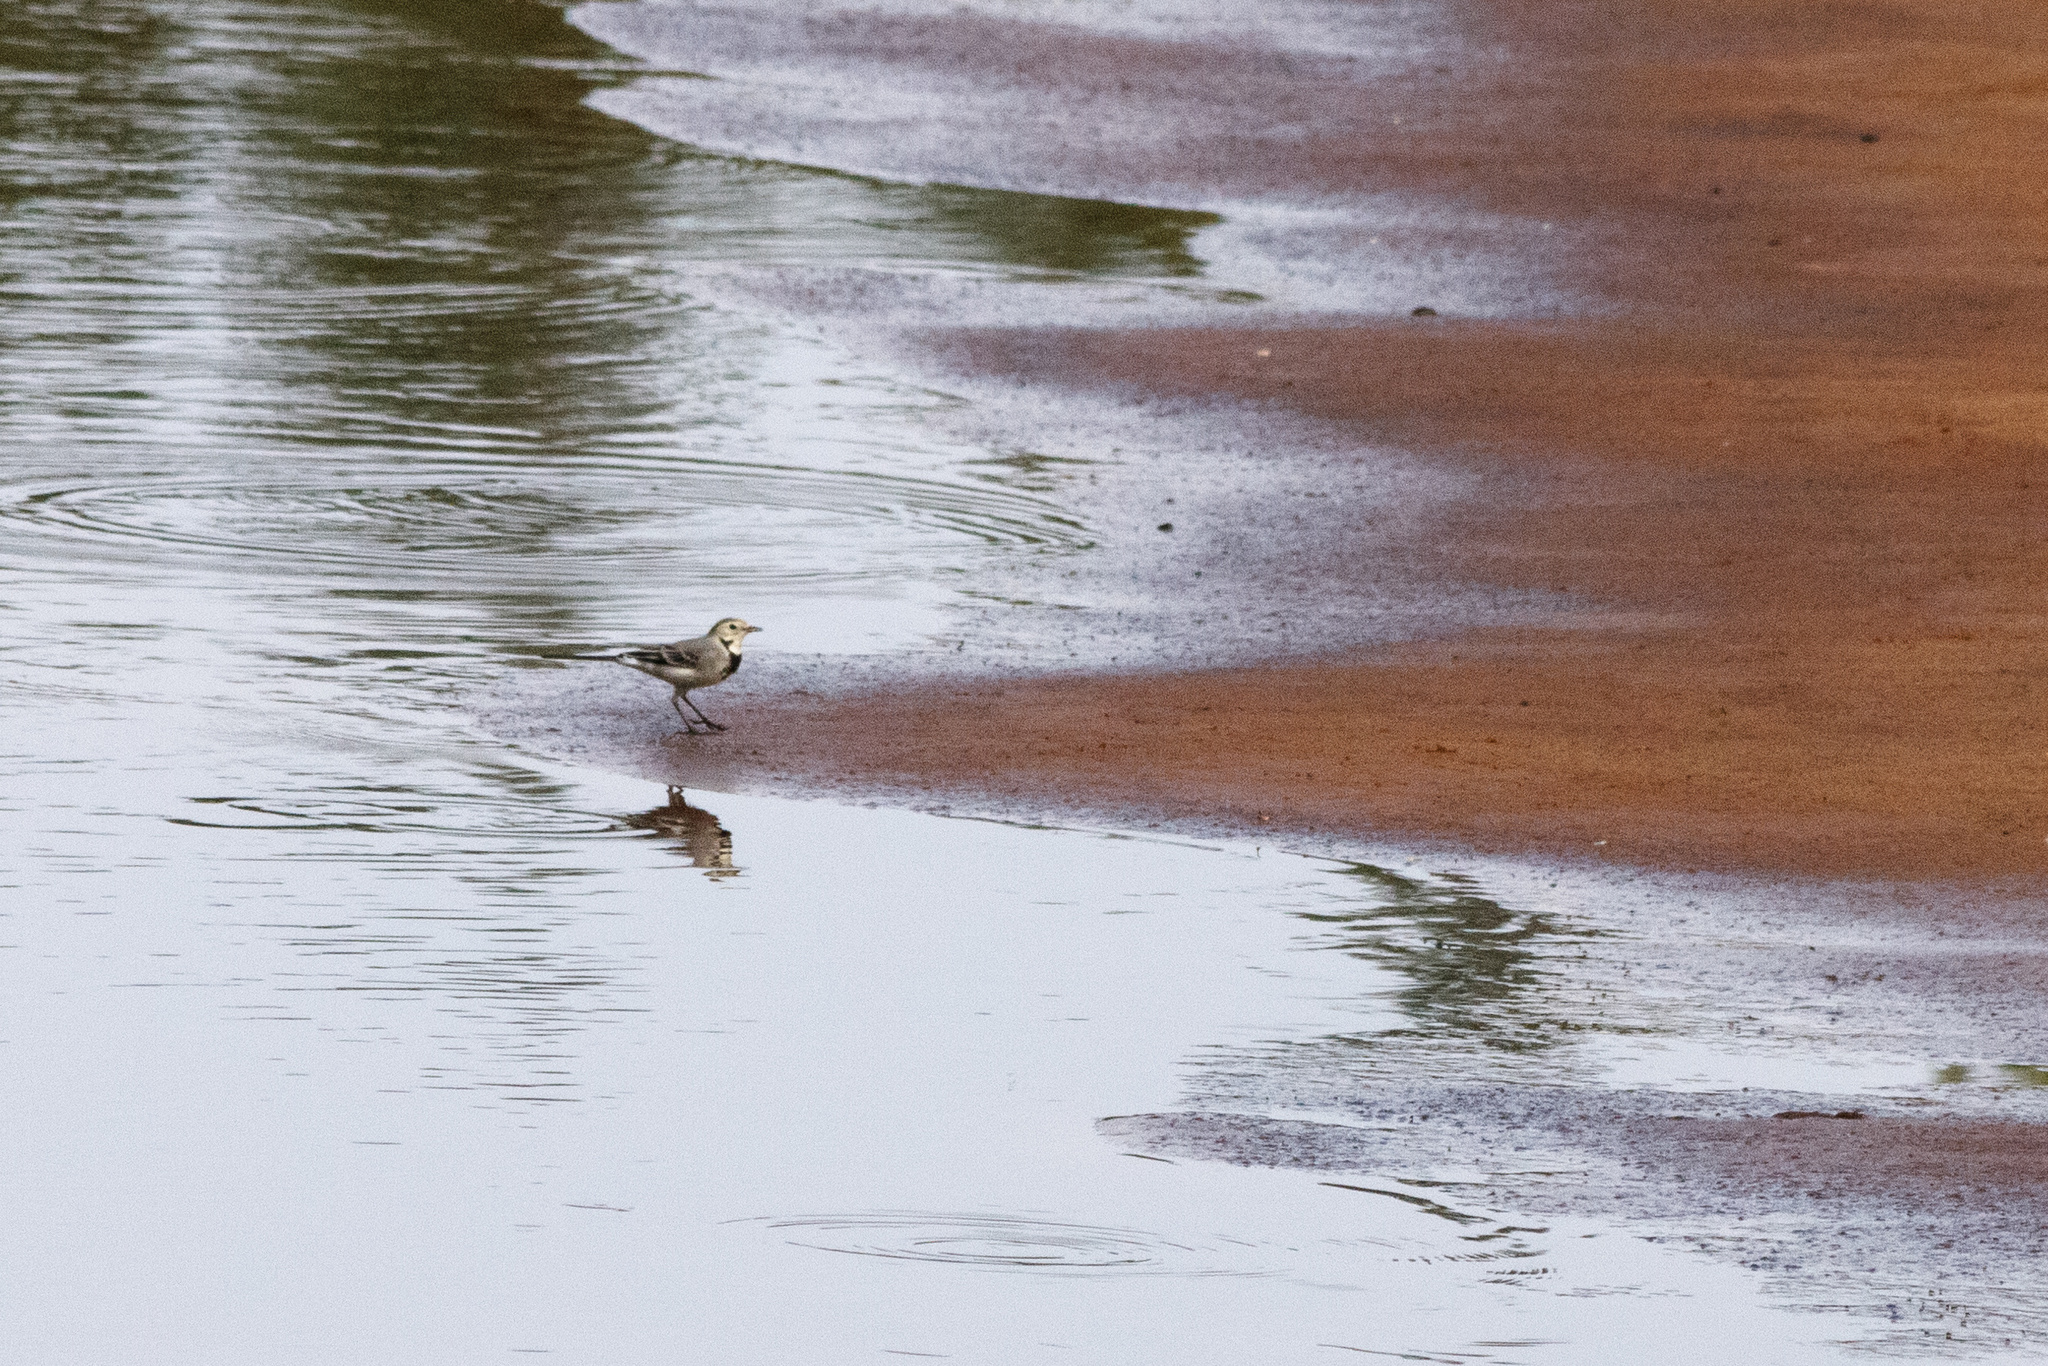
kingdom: Animalia
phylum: Chordata
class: Aves
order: Passeriformes
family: Motacillidae
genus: Motacilla
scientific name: Motacilla alba
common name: White wagtail
